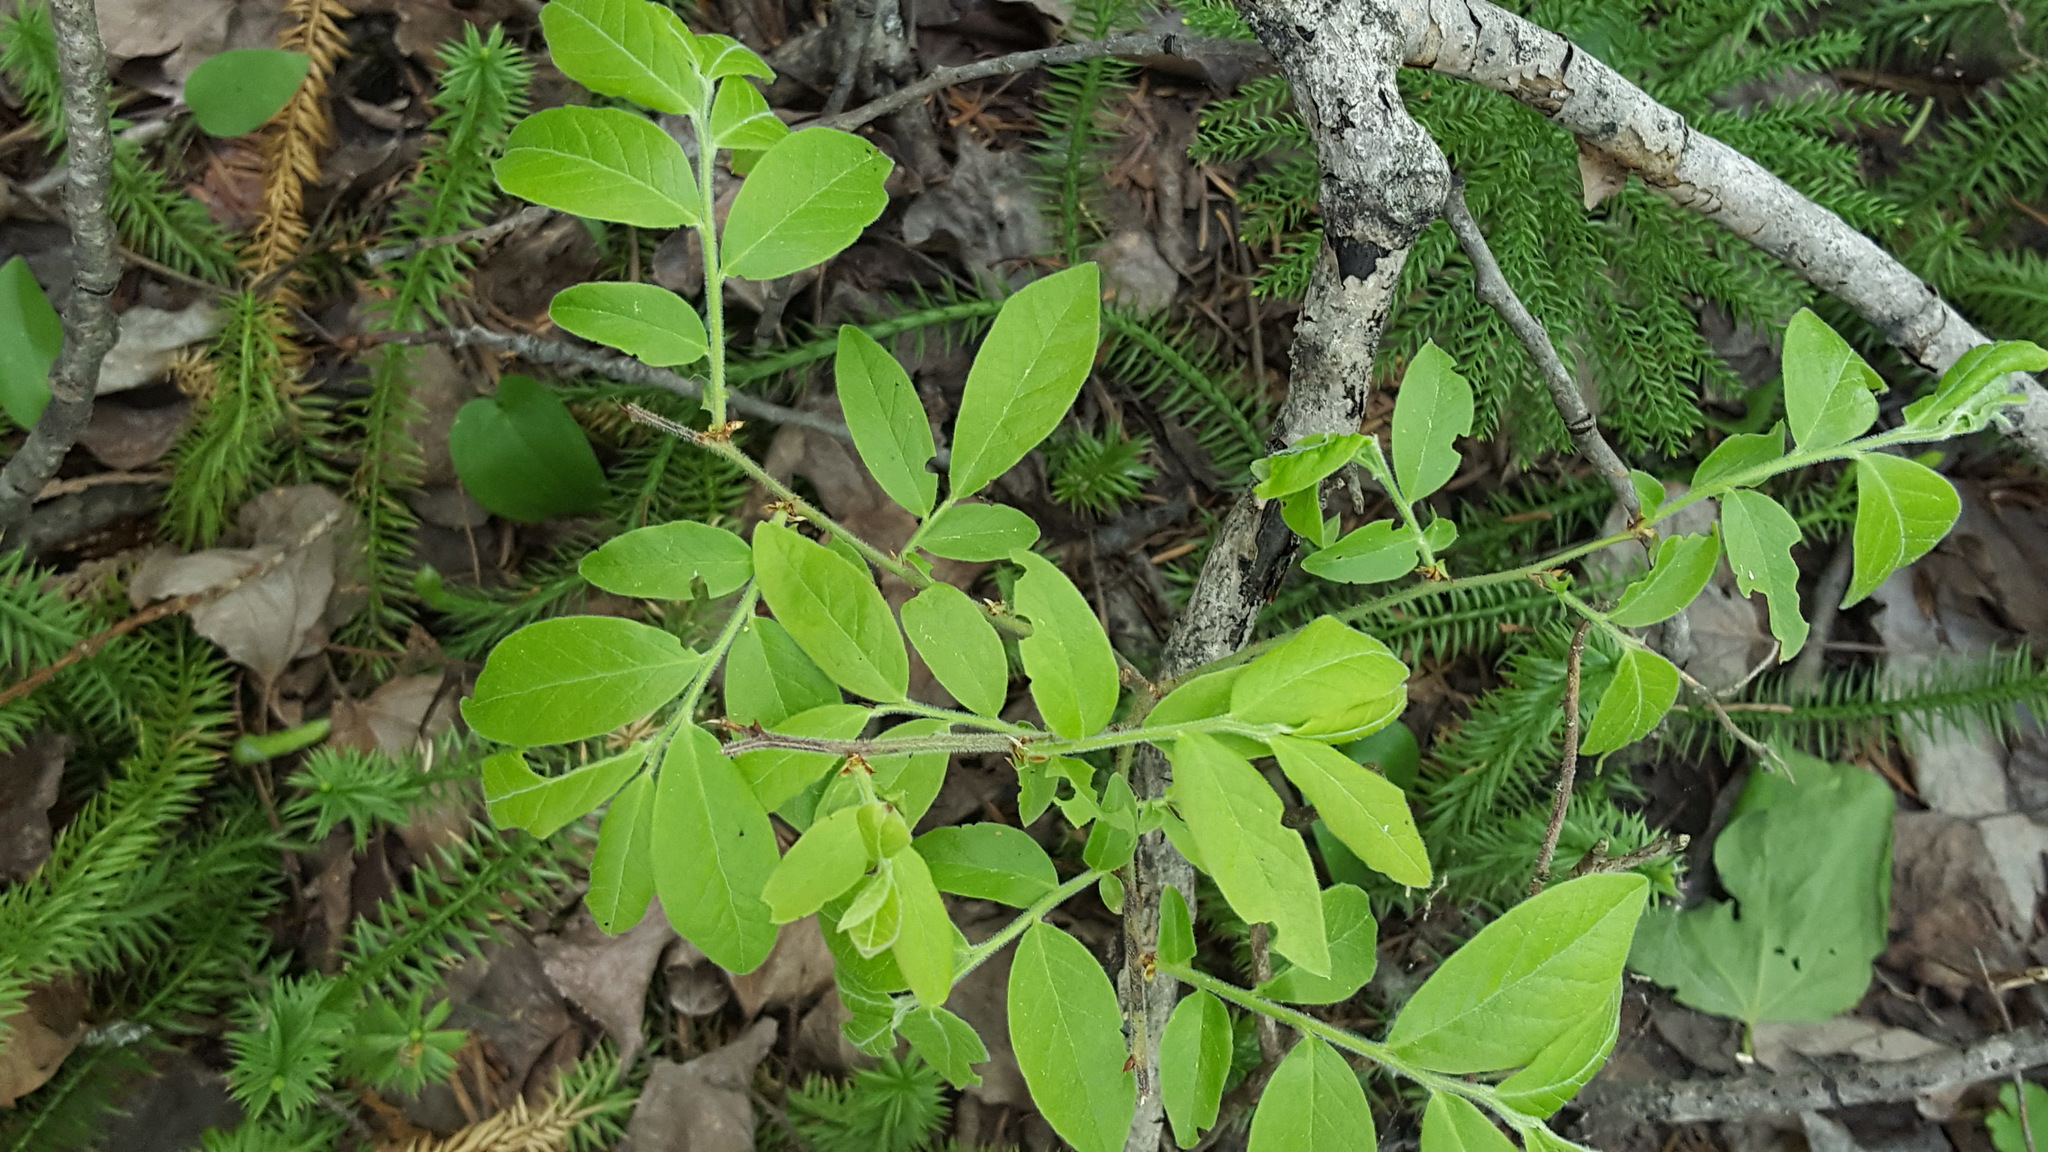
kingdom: Plantae
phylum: Tracheophyta
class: Magnoliopsida
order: Ericales
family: Ericaceae
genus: Vaccinium
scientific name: Vaccinium myrtilloides
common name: Canada blueberry
